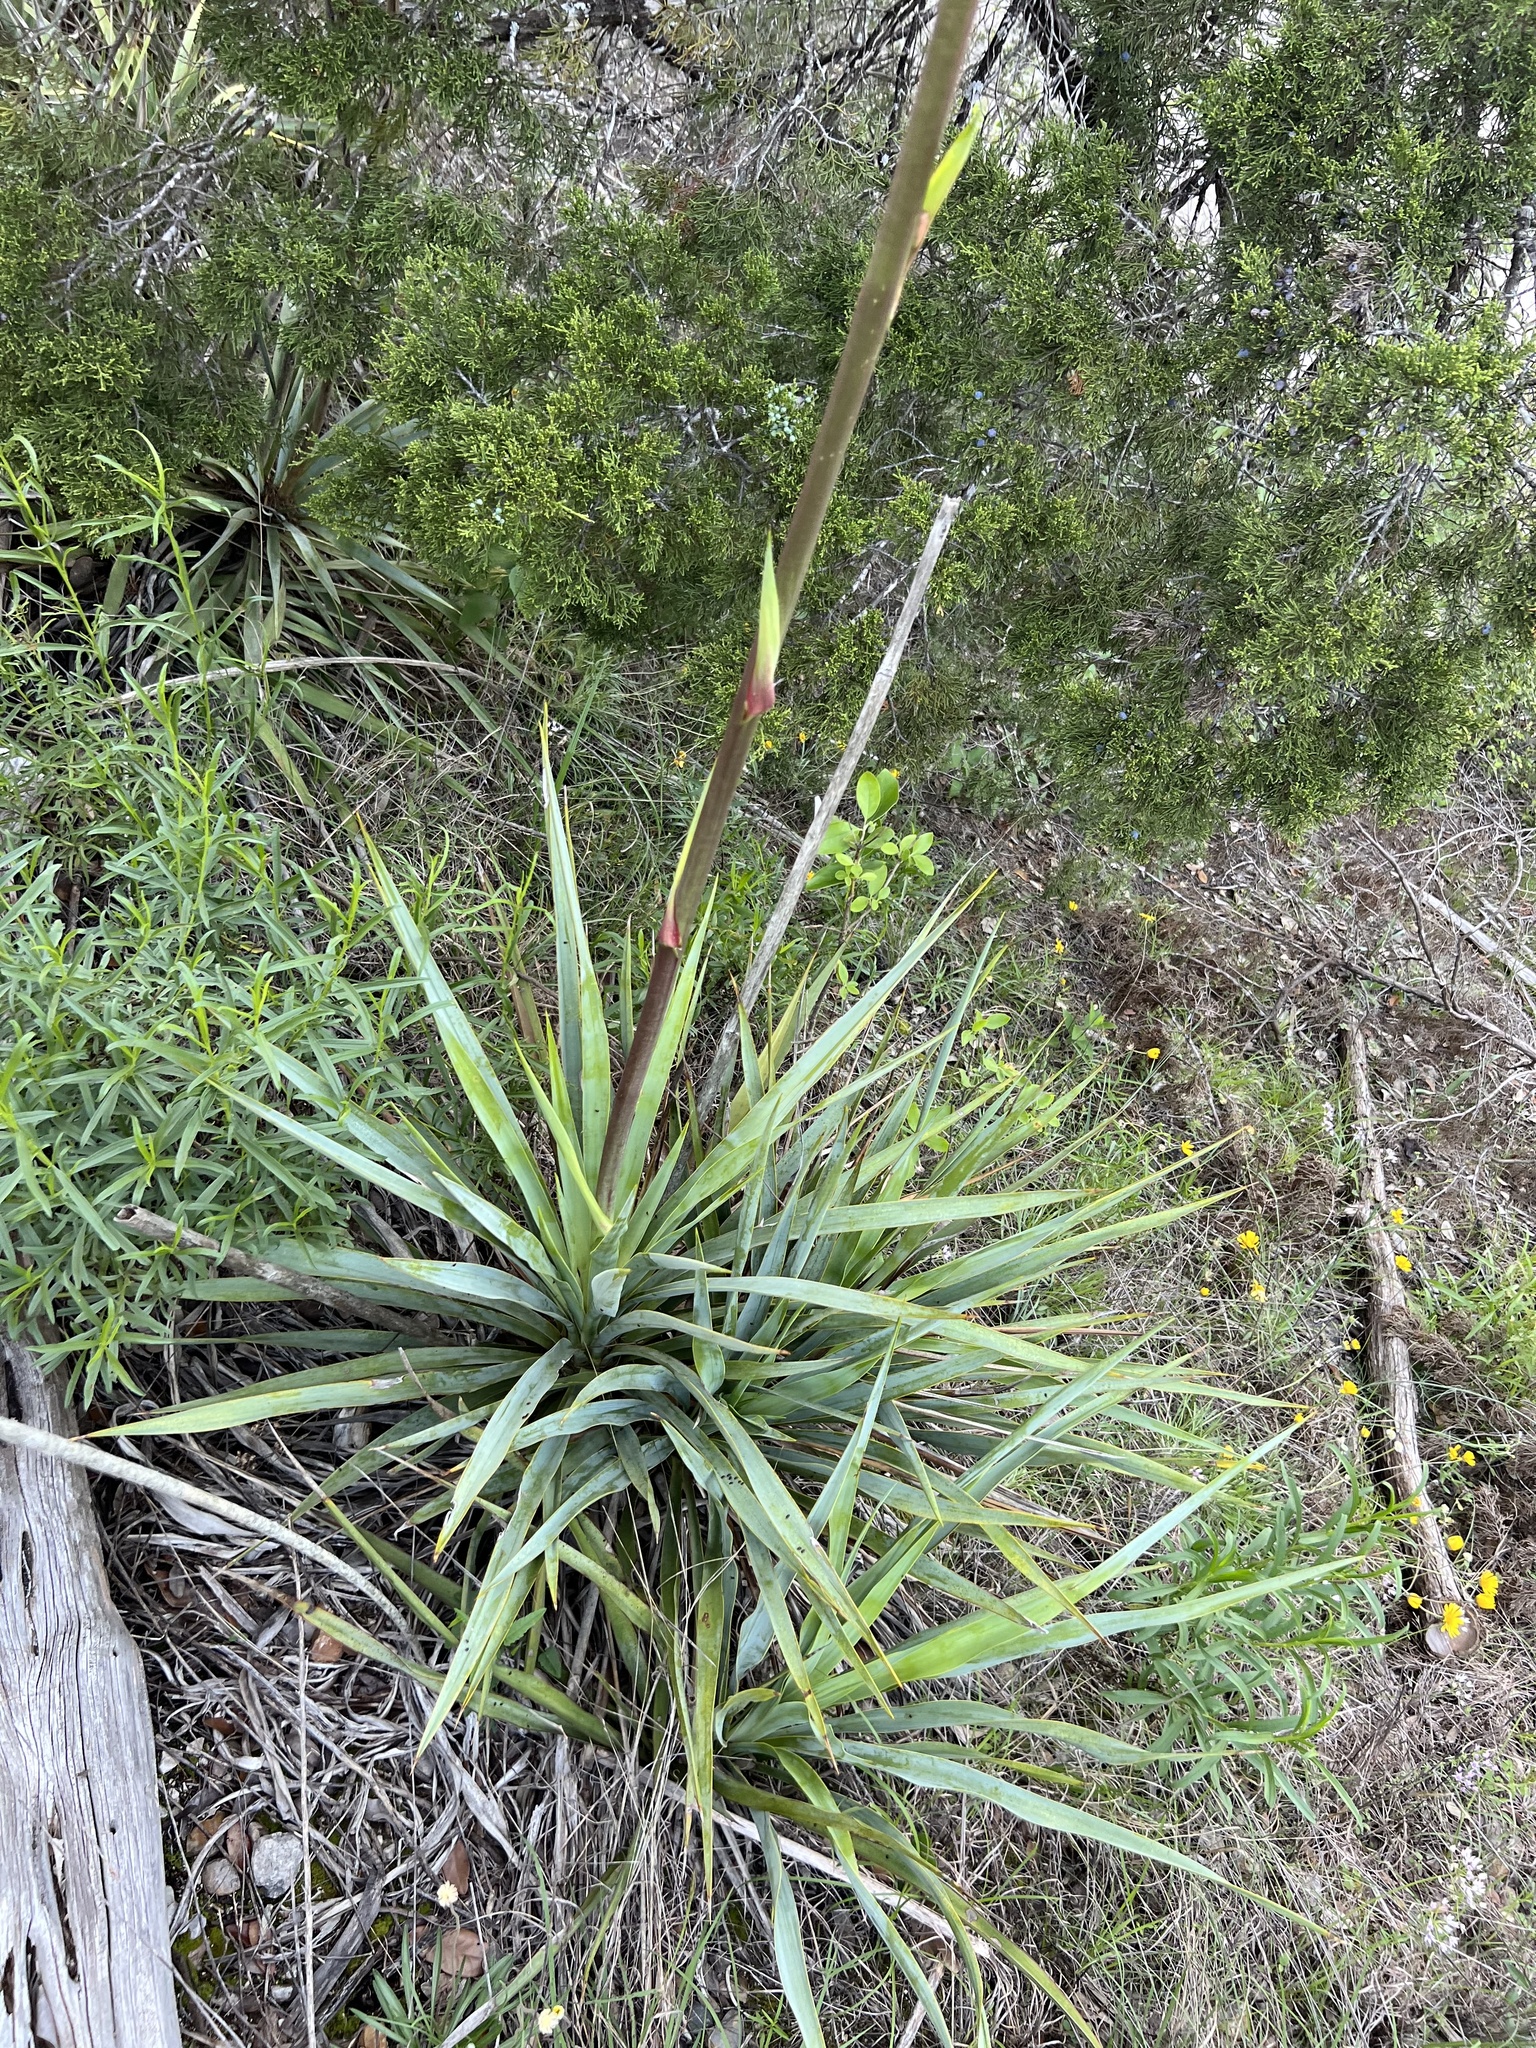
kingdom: Plantae
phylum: Tracheophyta
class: Liliopsida
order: Asparagales
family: Asparagaceae
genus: Yucca
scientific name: Yucca rupicola
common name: Twisted-leaf spanish-dagger
